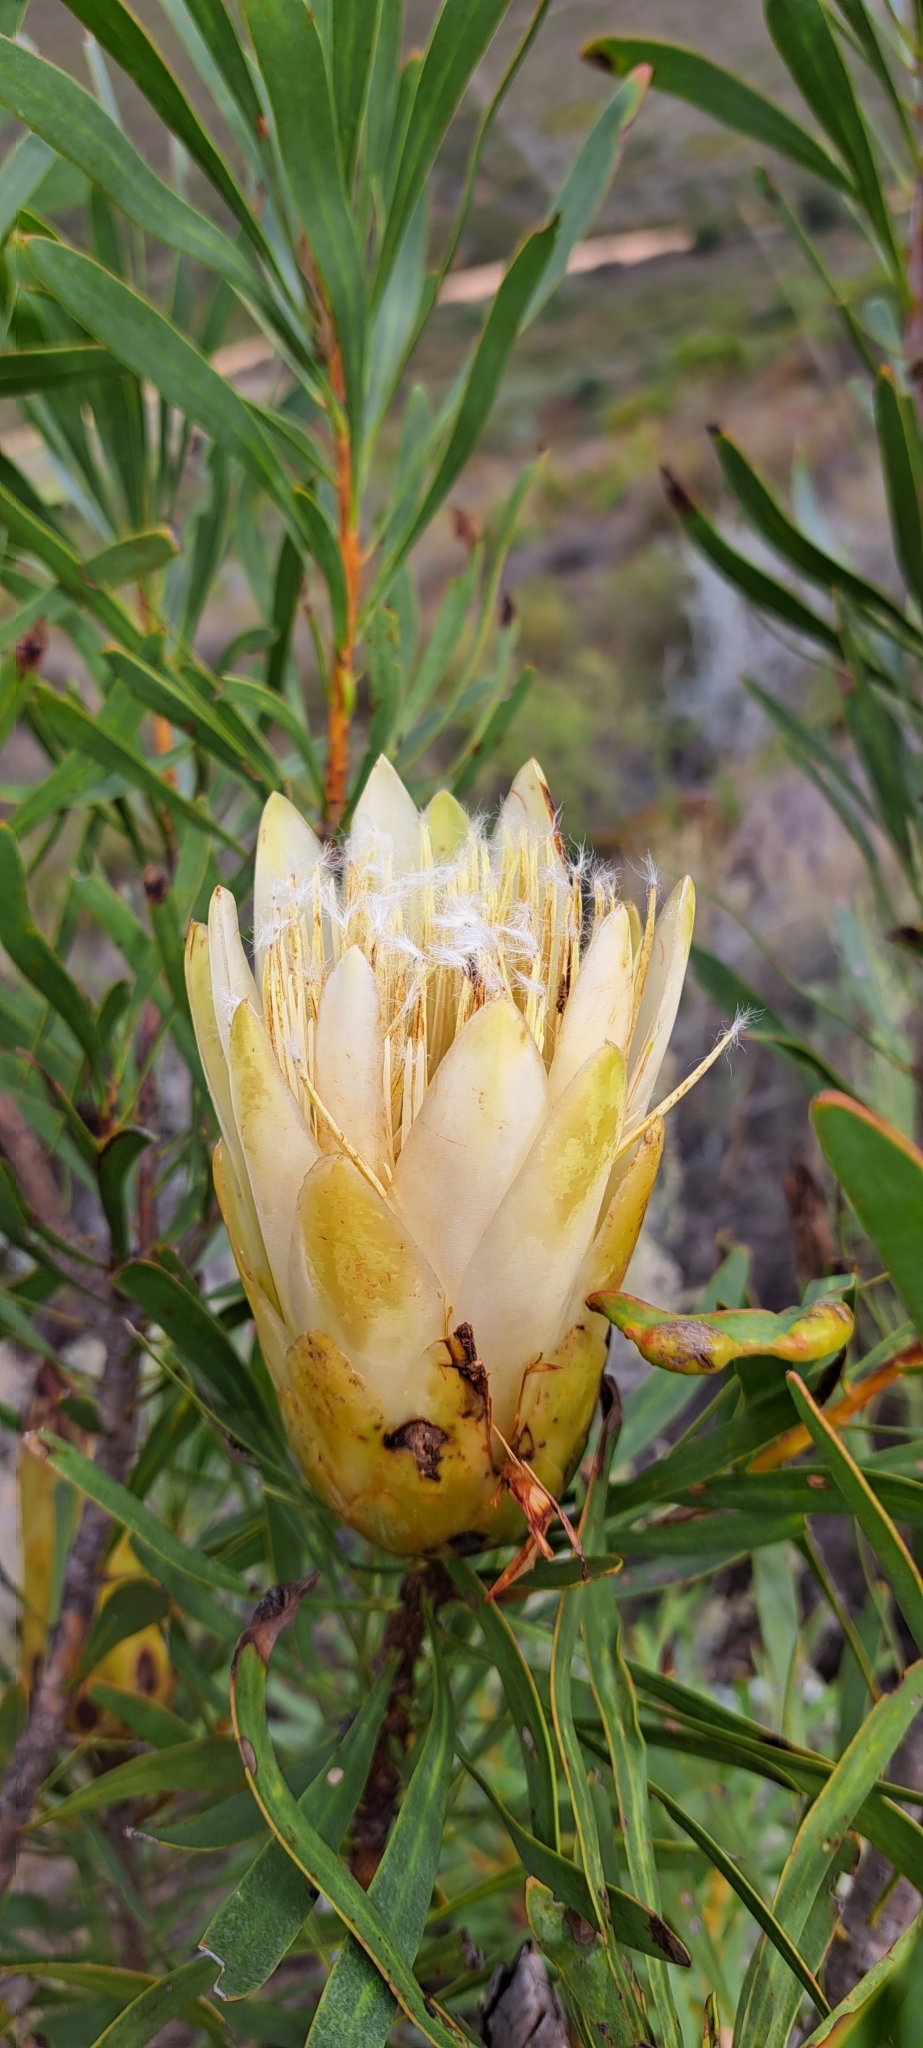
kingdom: Plantae
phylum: Tracheophyta
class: Magnoliopsida
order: Proteales
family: Proteaceae
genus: Protea
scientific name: Protea repens
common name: Sugarbush
